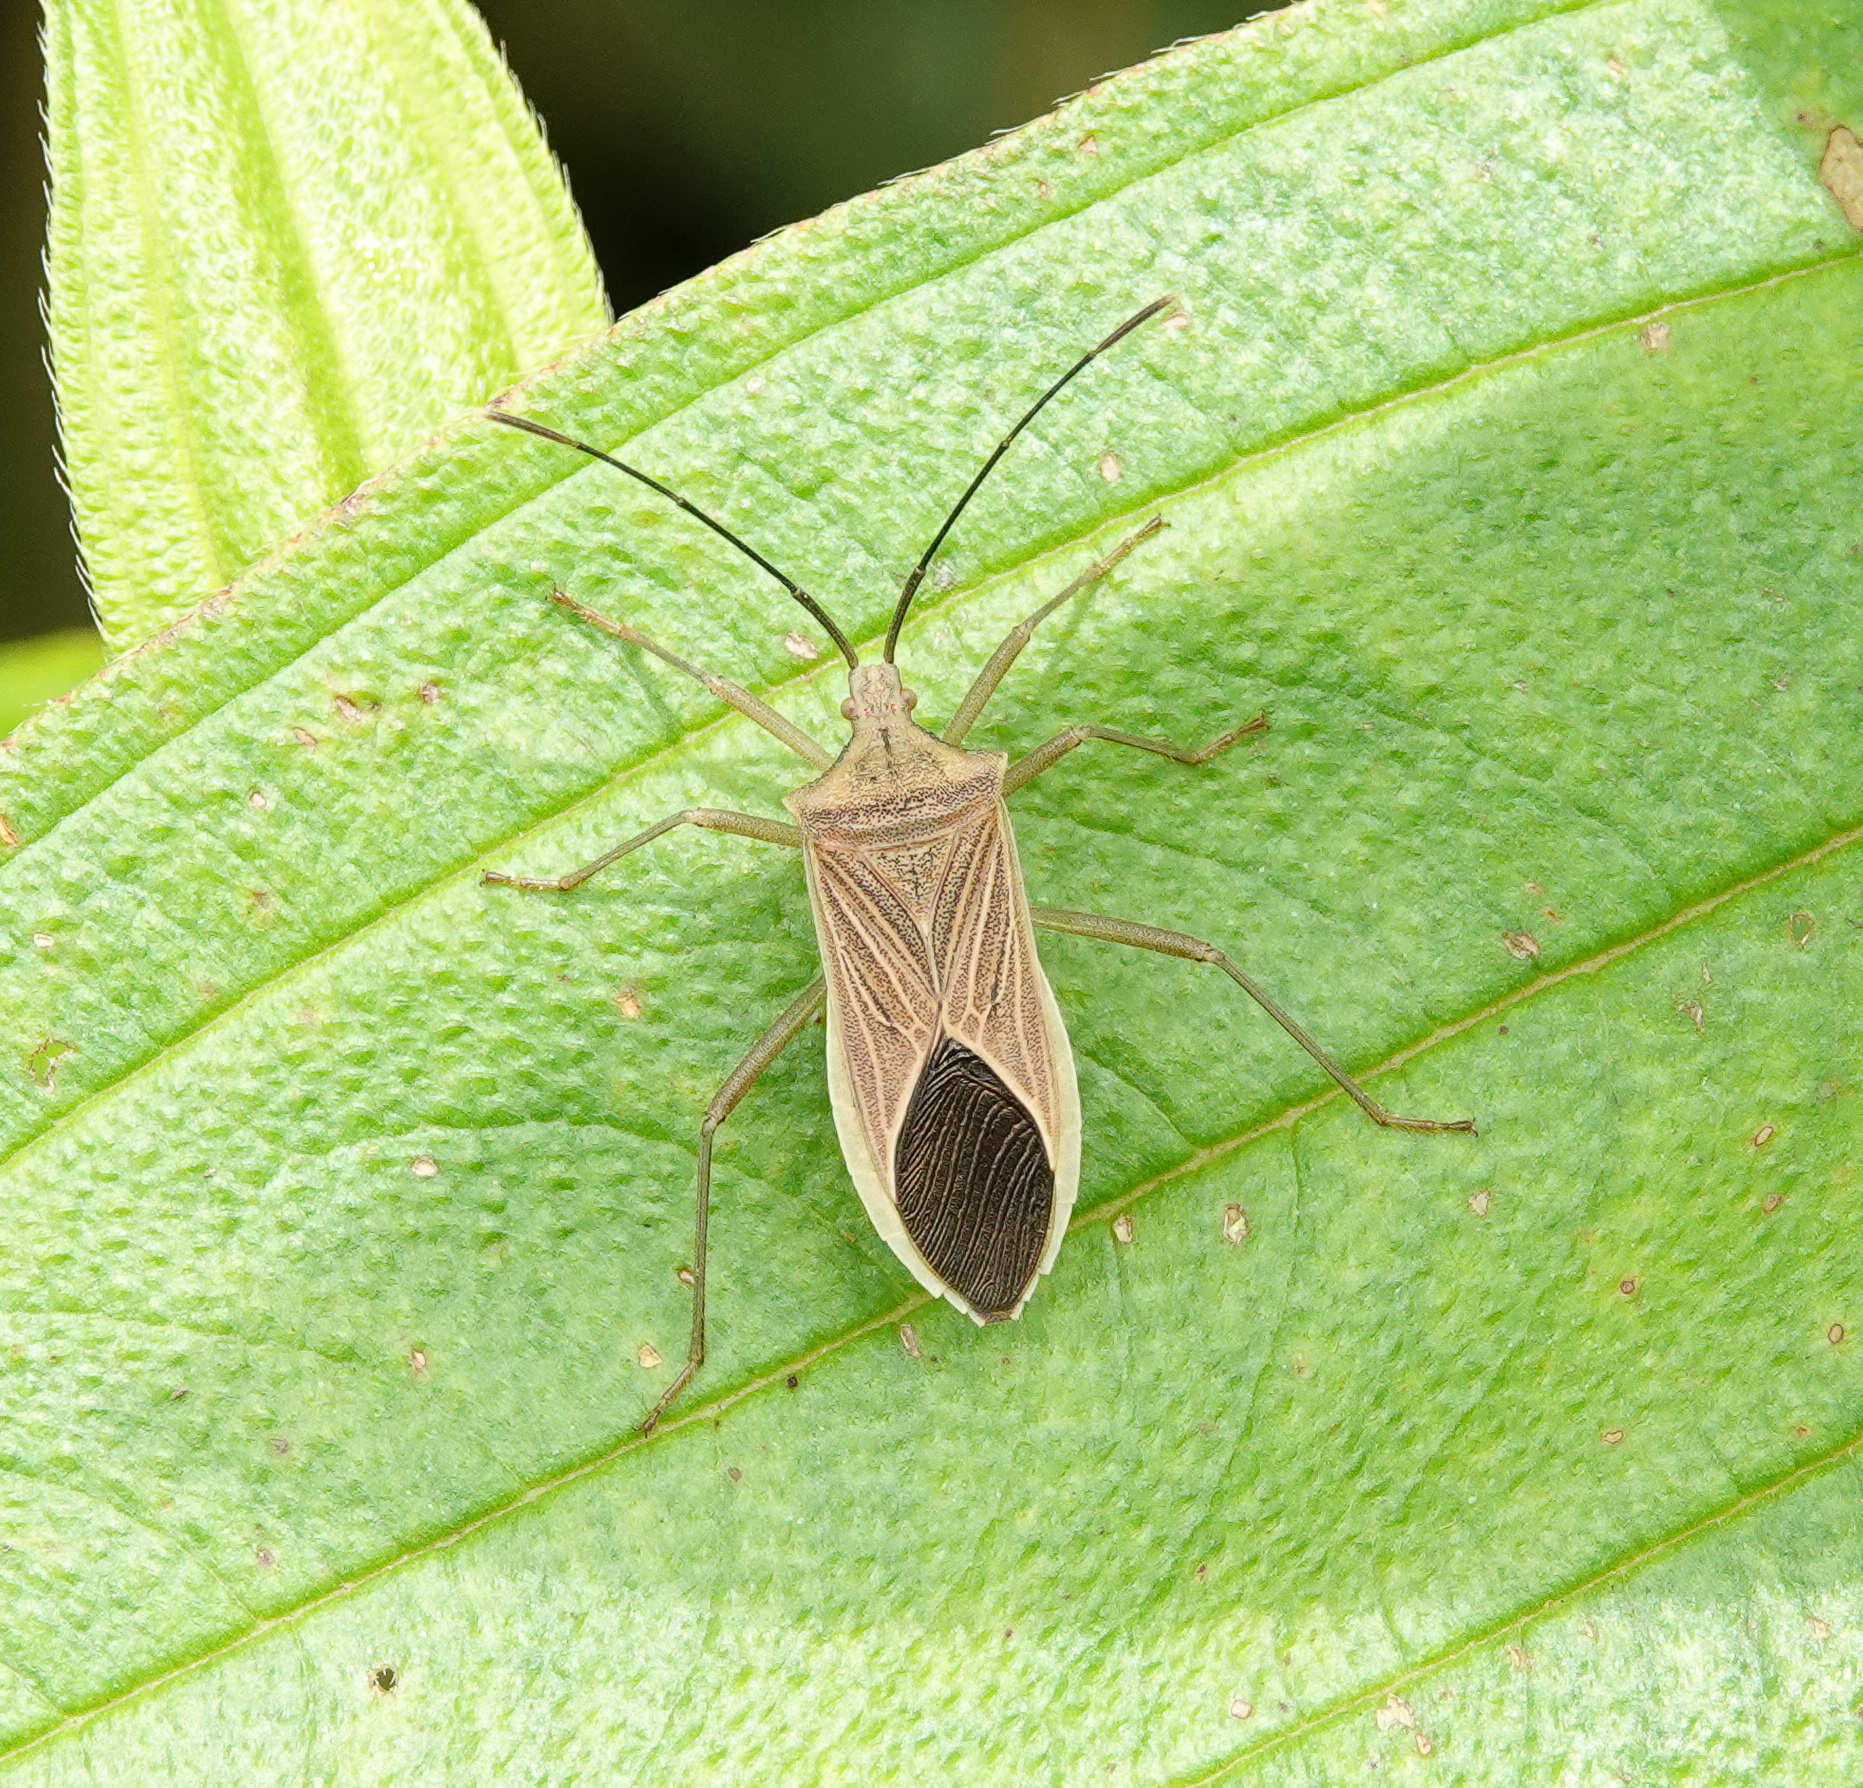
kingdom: Animalia
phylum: Arthropoda
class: Insecta
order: Hemiptera
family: Coreidae
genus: Homoeocerus
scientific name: Homoeocerus atkinsoni
